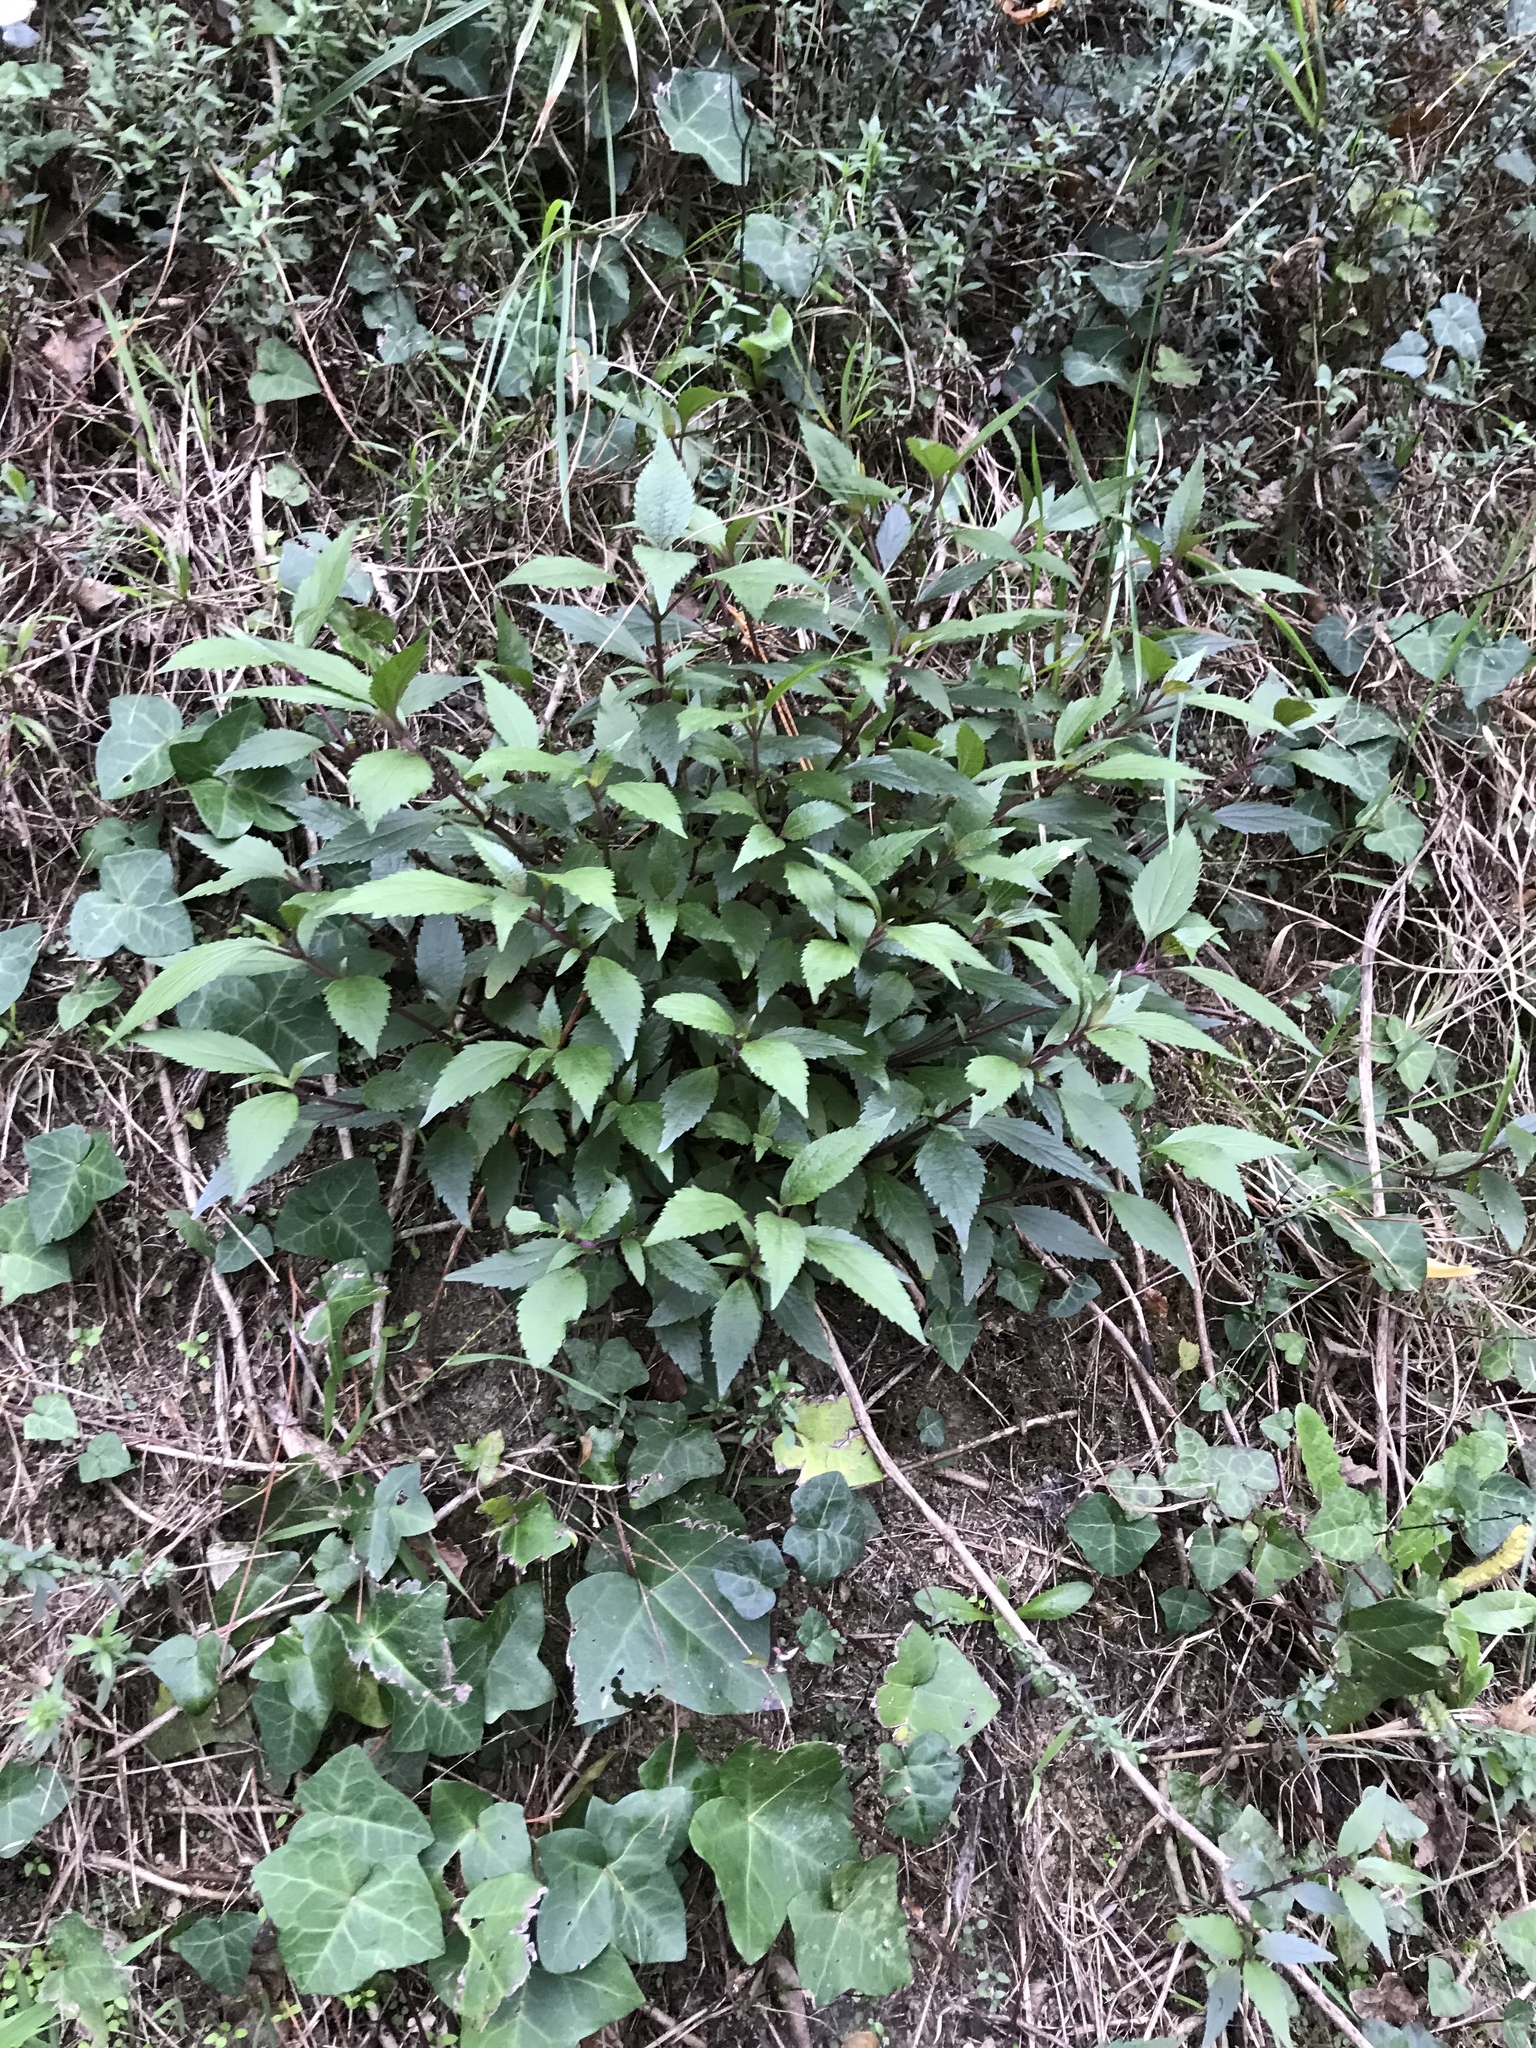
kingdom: Plantae
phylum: Tracheophyta
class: Magnoliopsida
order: Asterales
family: Asteraceae
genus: Ageratina
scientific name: Ageratina riparia
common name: Creeping croftonweed
